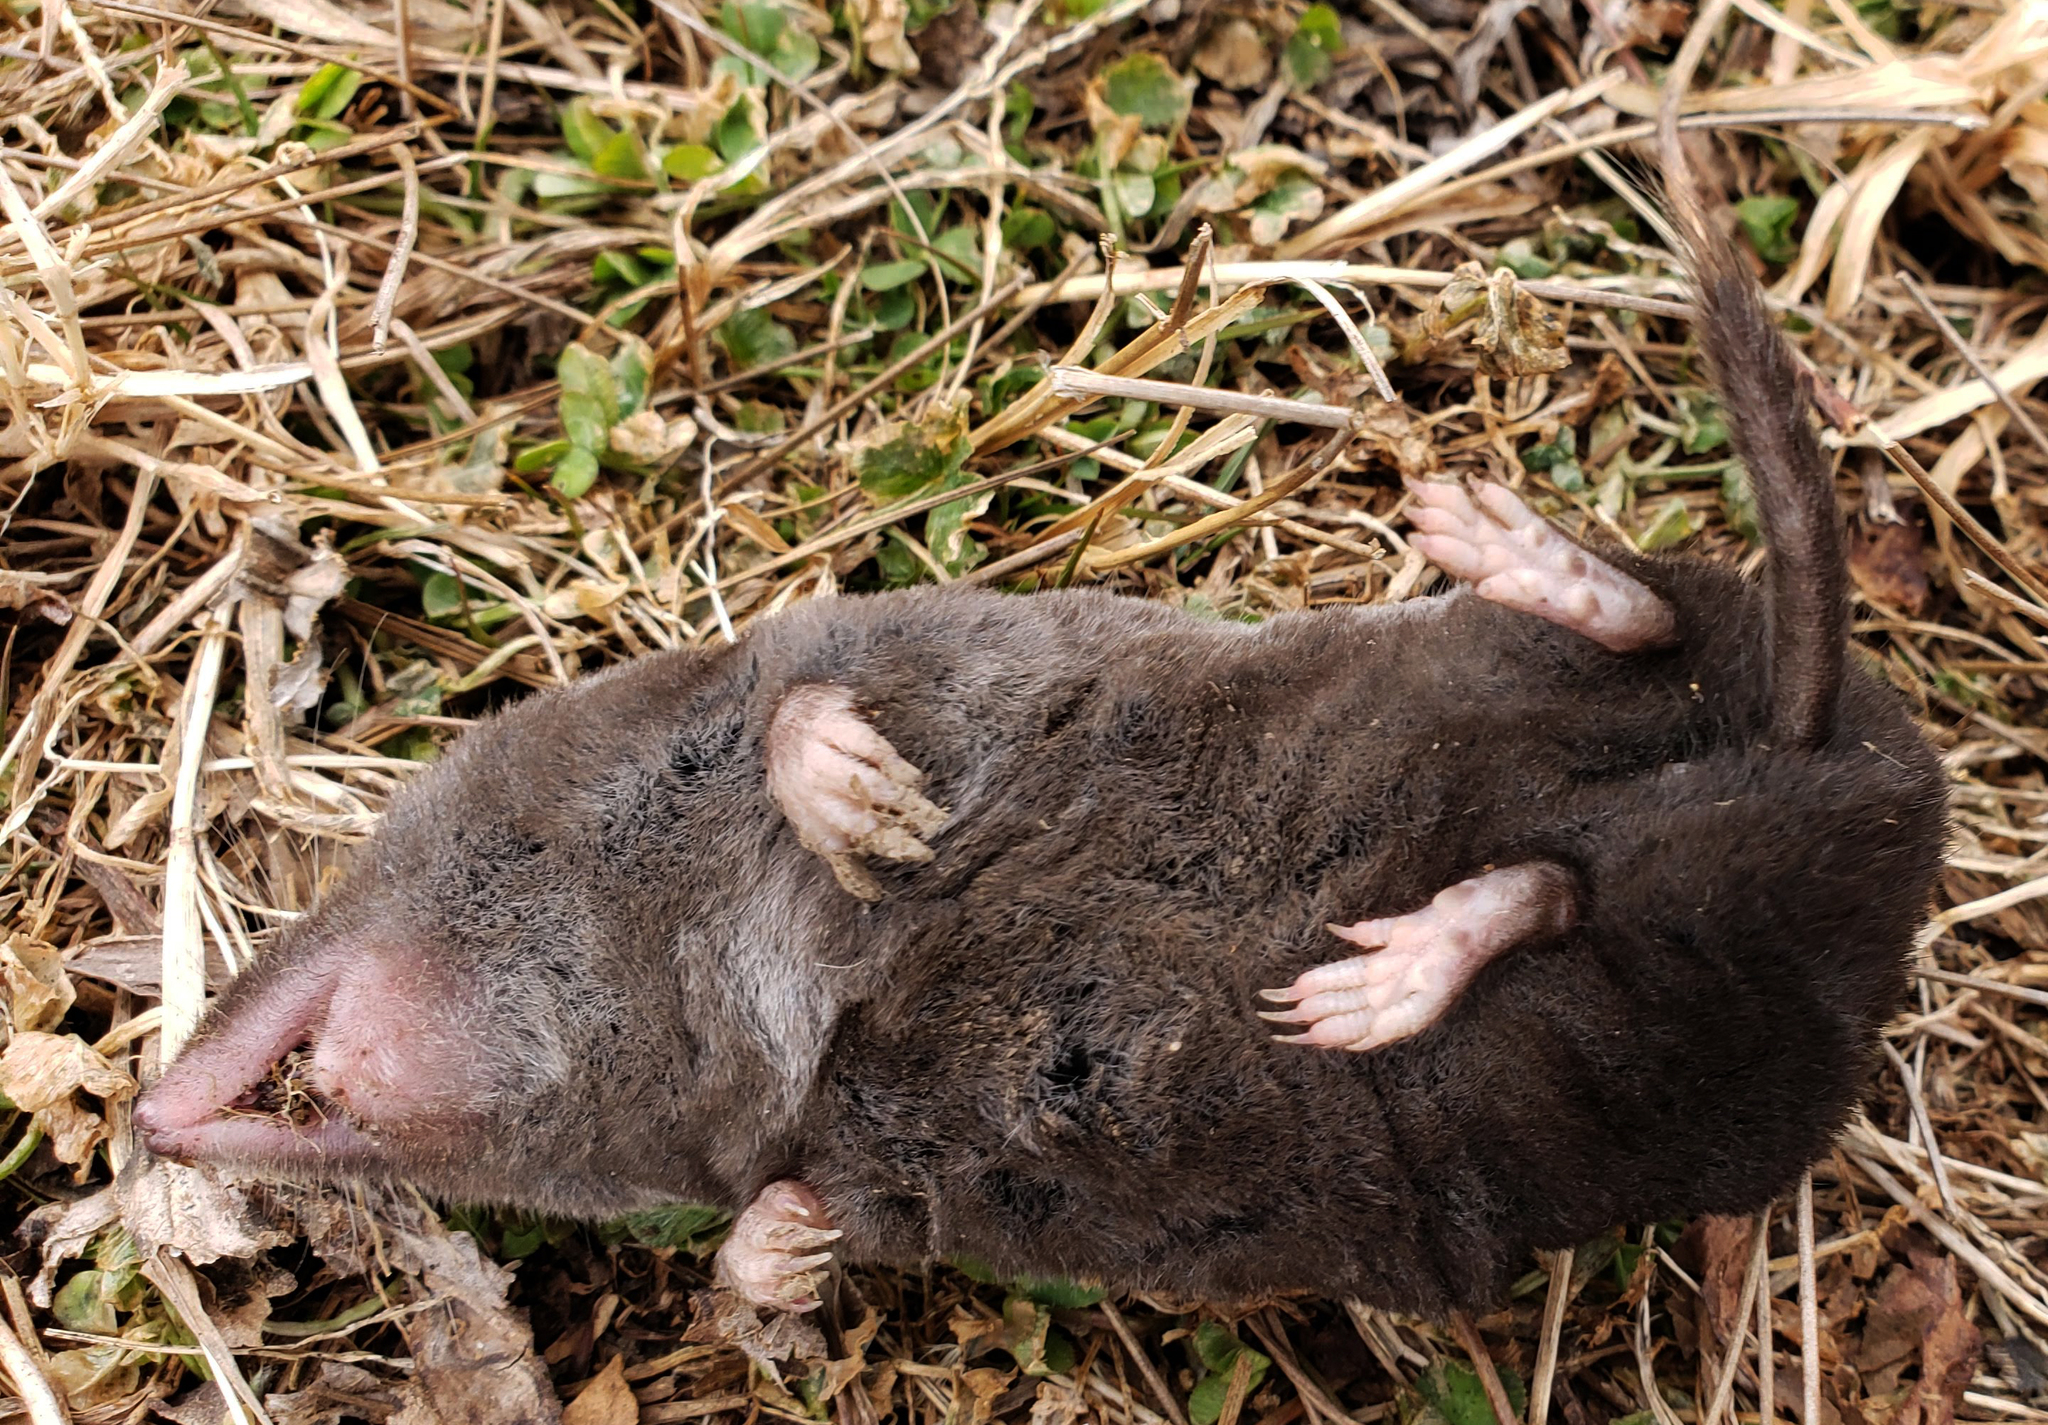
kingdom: Animalia
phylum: Chordata
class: Mammalia
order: Soricomorpha
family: Soricidae
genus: Blarina
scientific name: Blarina brevicauda
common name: Northern short-tailed shrew
